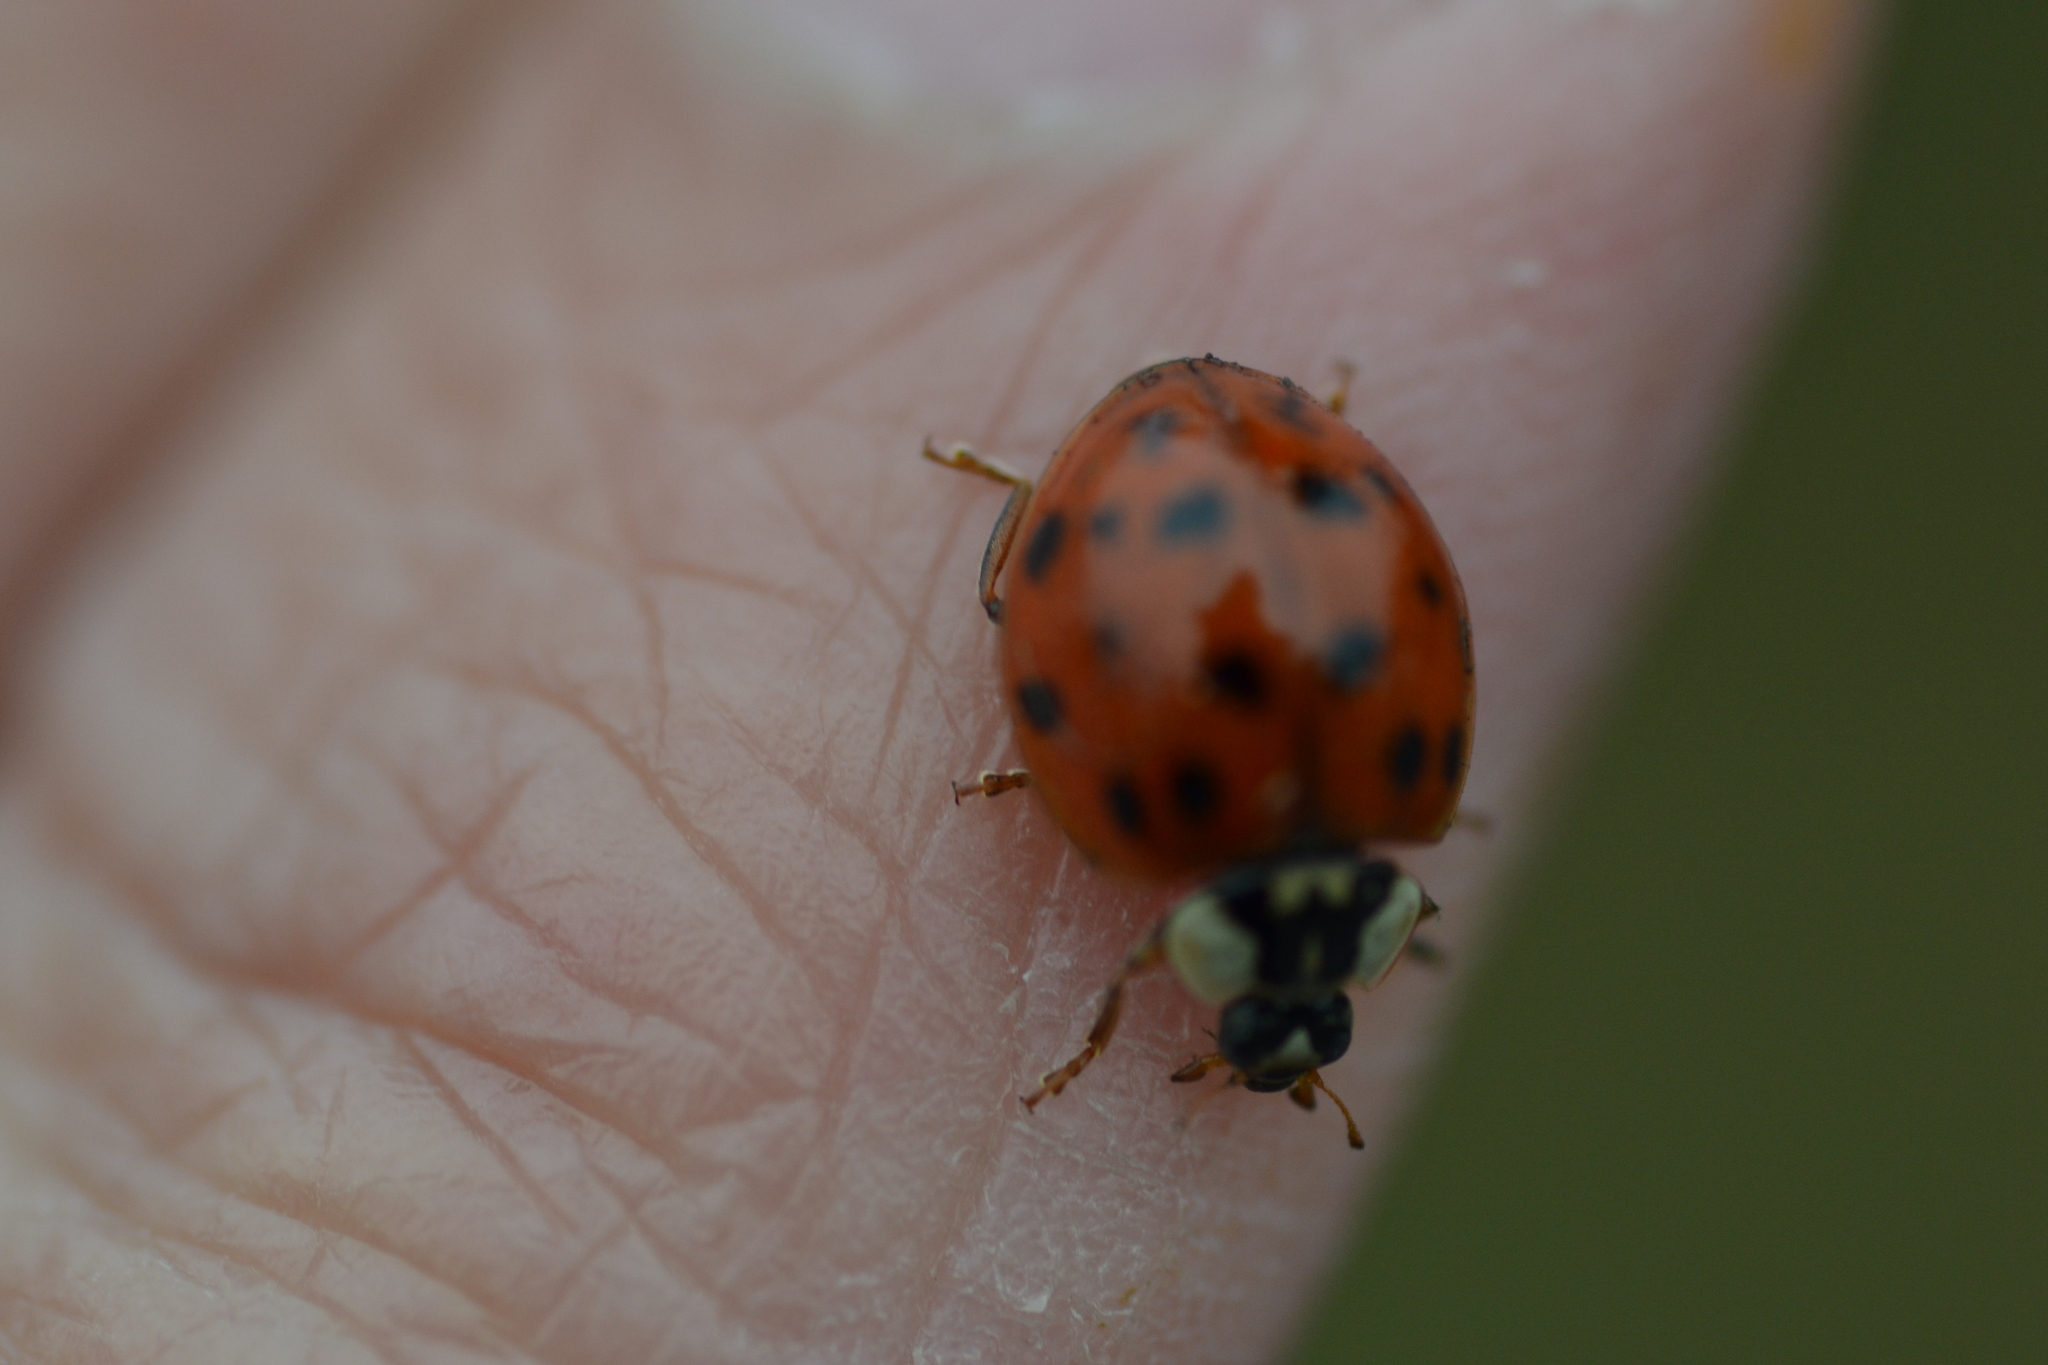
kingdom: Animalia
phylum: Arthropoda
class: Insecta
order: Coleoptera
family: Coccinellidae
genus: Harmonia
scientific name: Harmonia axyridis
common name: Harlequin ladybird
